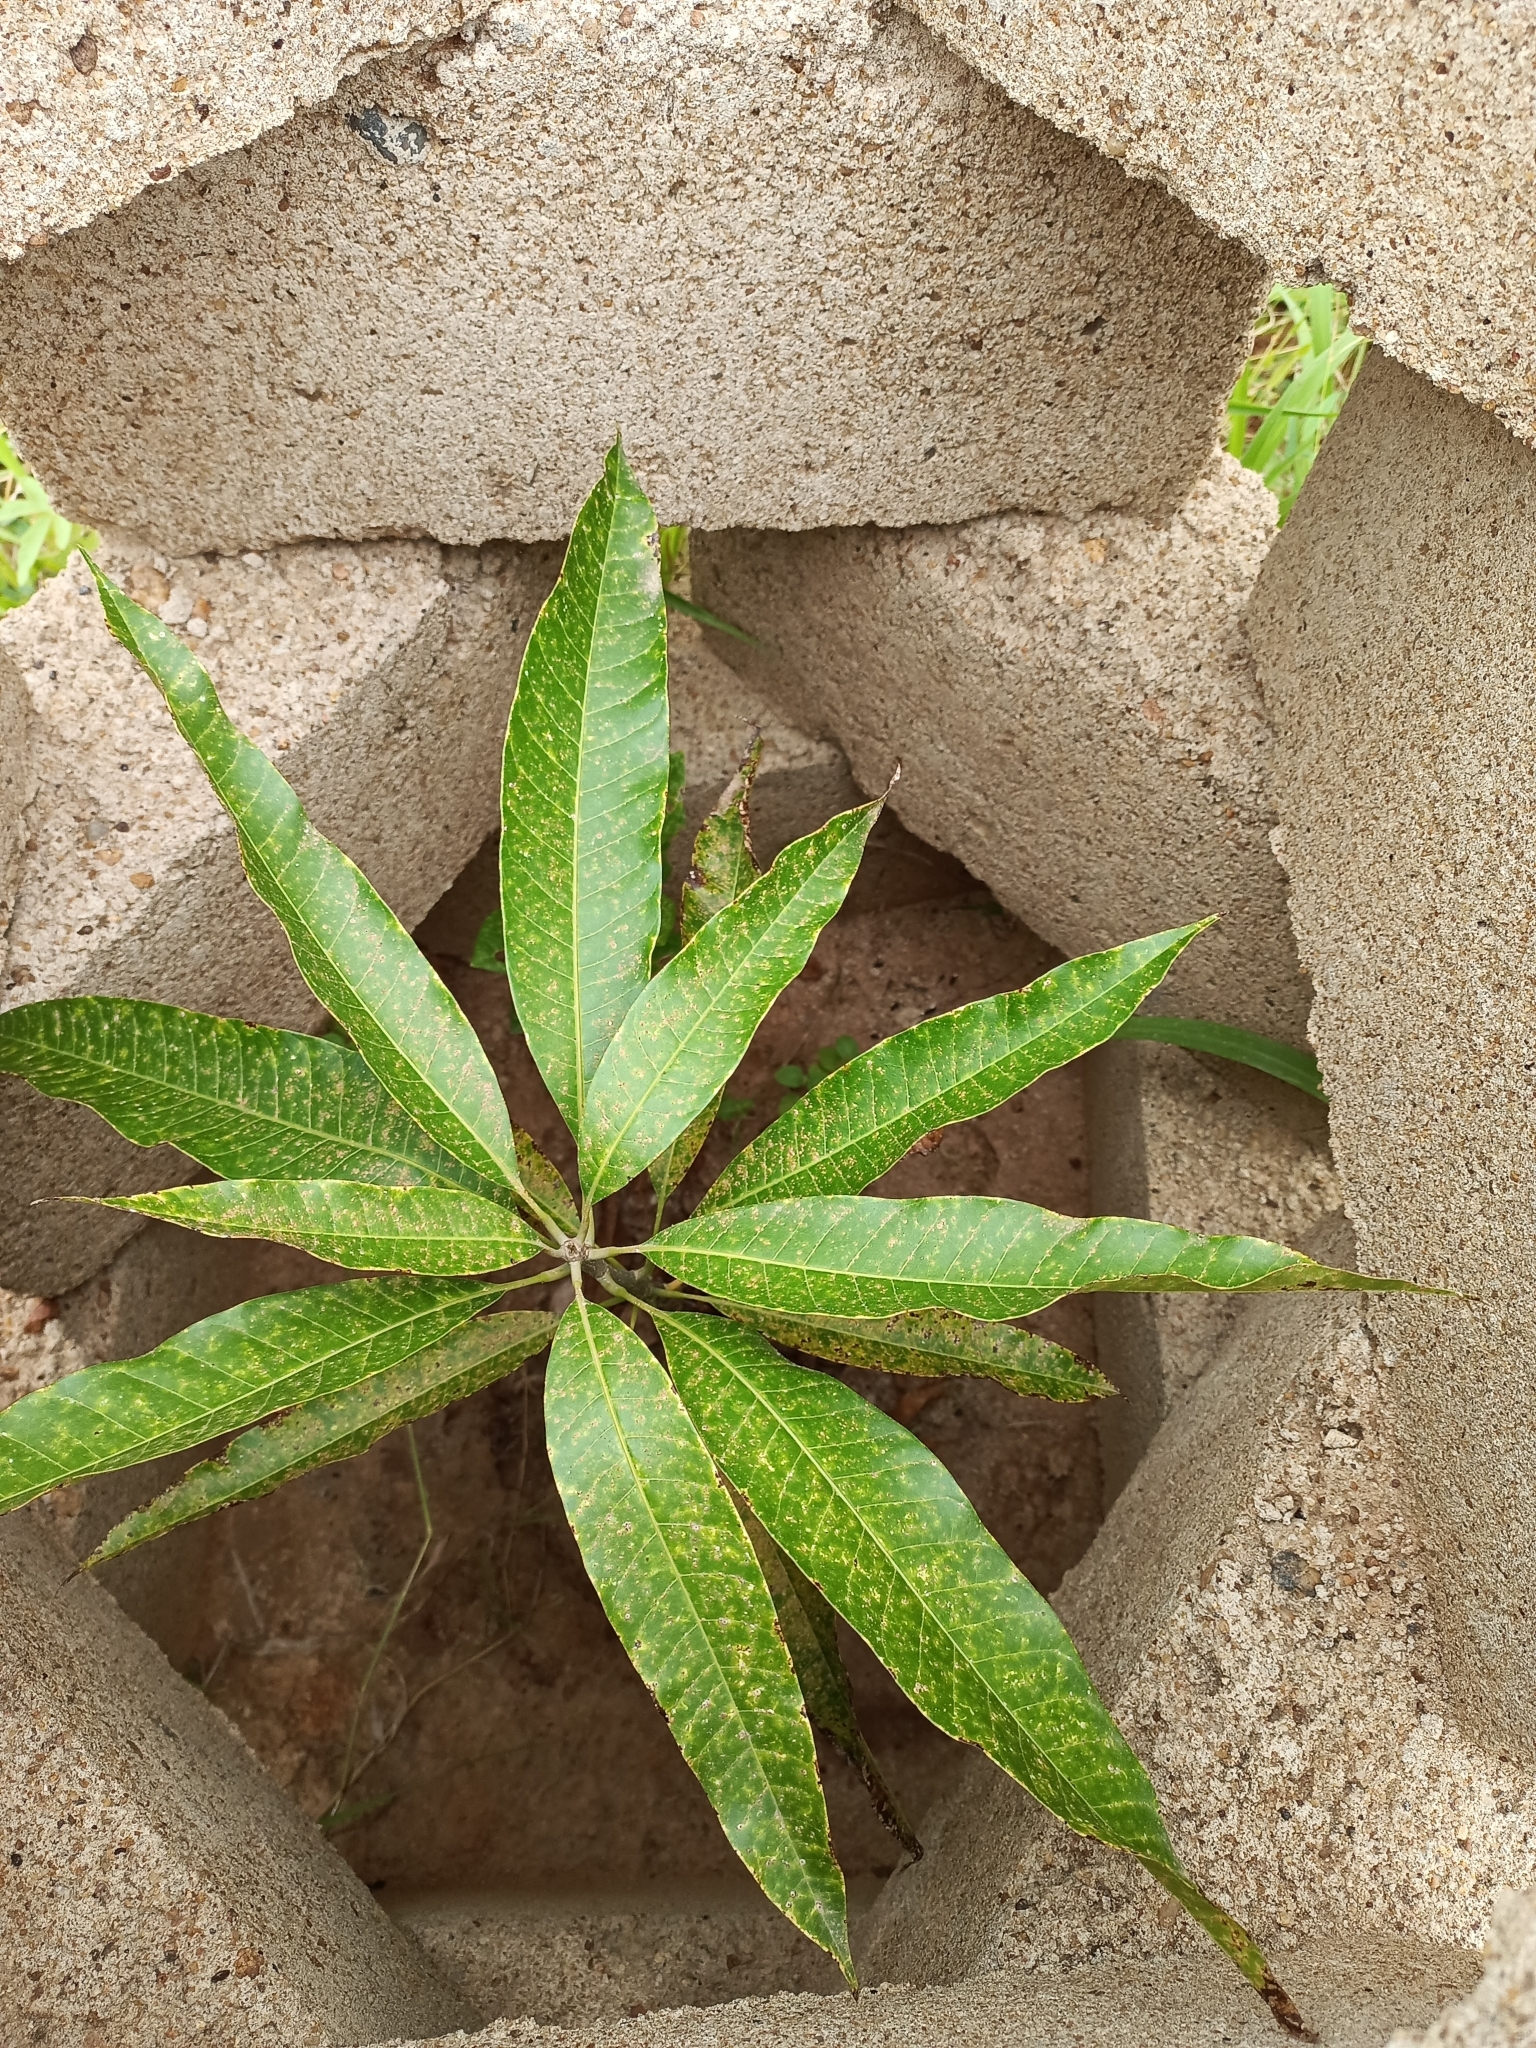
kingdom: Plantae
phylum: Tracheophyta
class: Magnoliopsida
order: Sapindales
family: Anacardiaceae
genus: Mangifera
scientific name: Mangifera indica
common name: Mango
